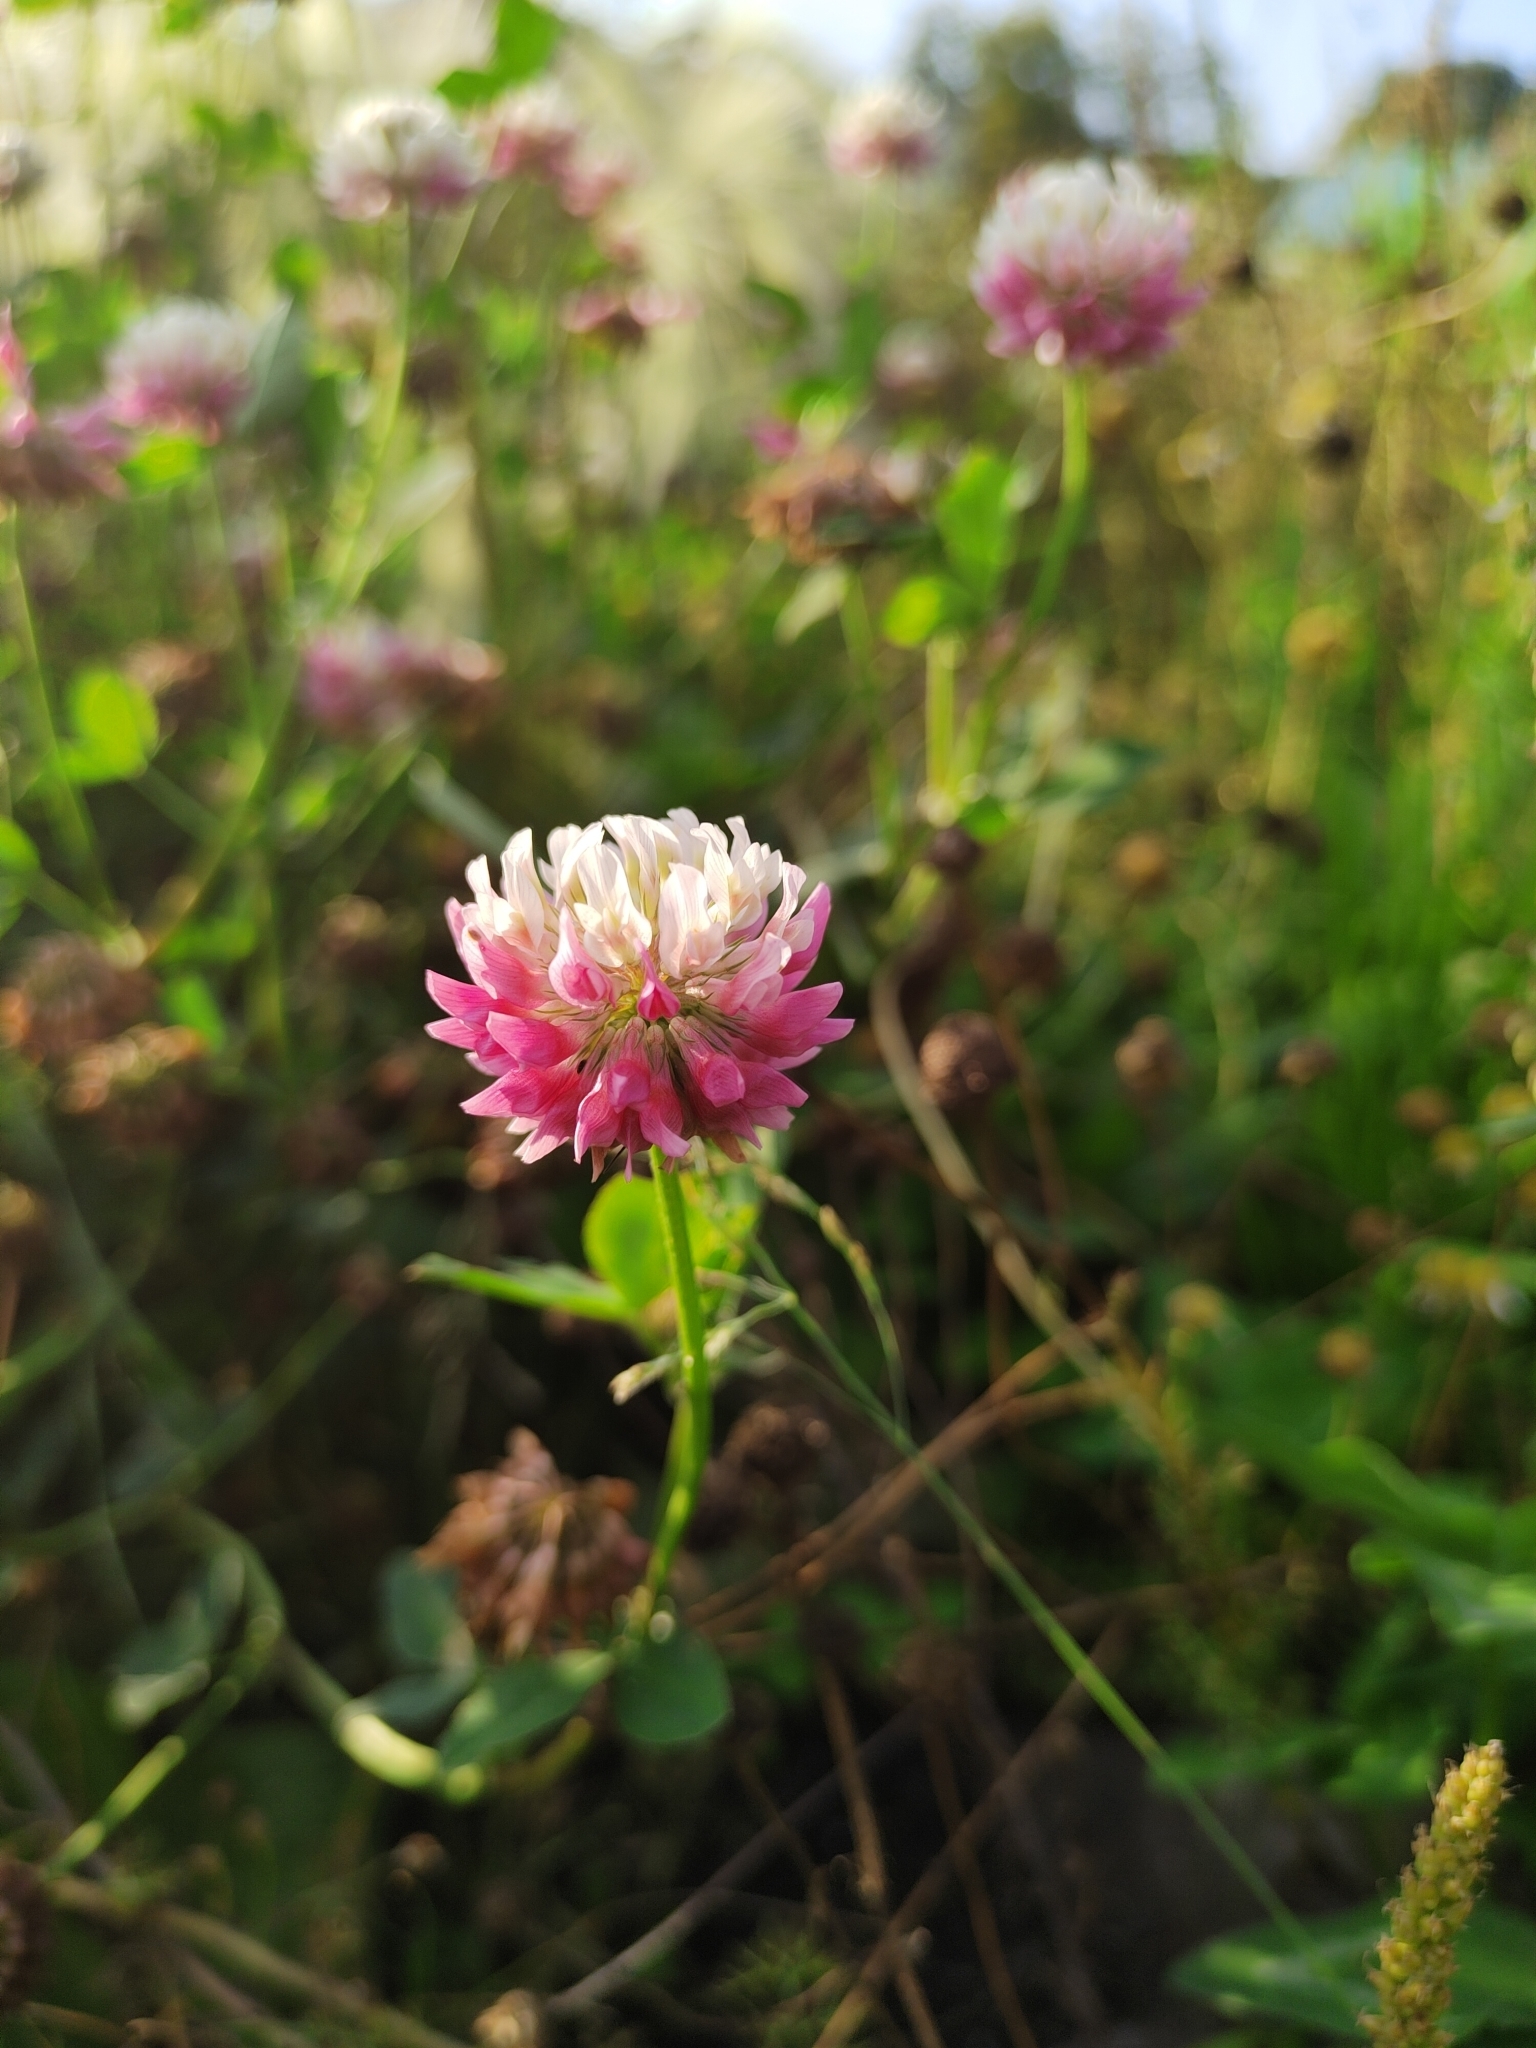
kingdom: Plantae
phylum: Tracheophyta
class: Magnoliopsida
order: Fabales
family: Fabaceae
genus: Trifolium
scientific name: Trifolium hybridum
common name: Alsike clover
